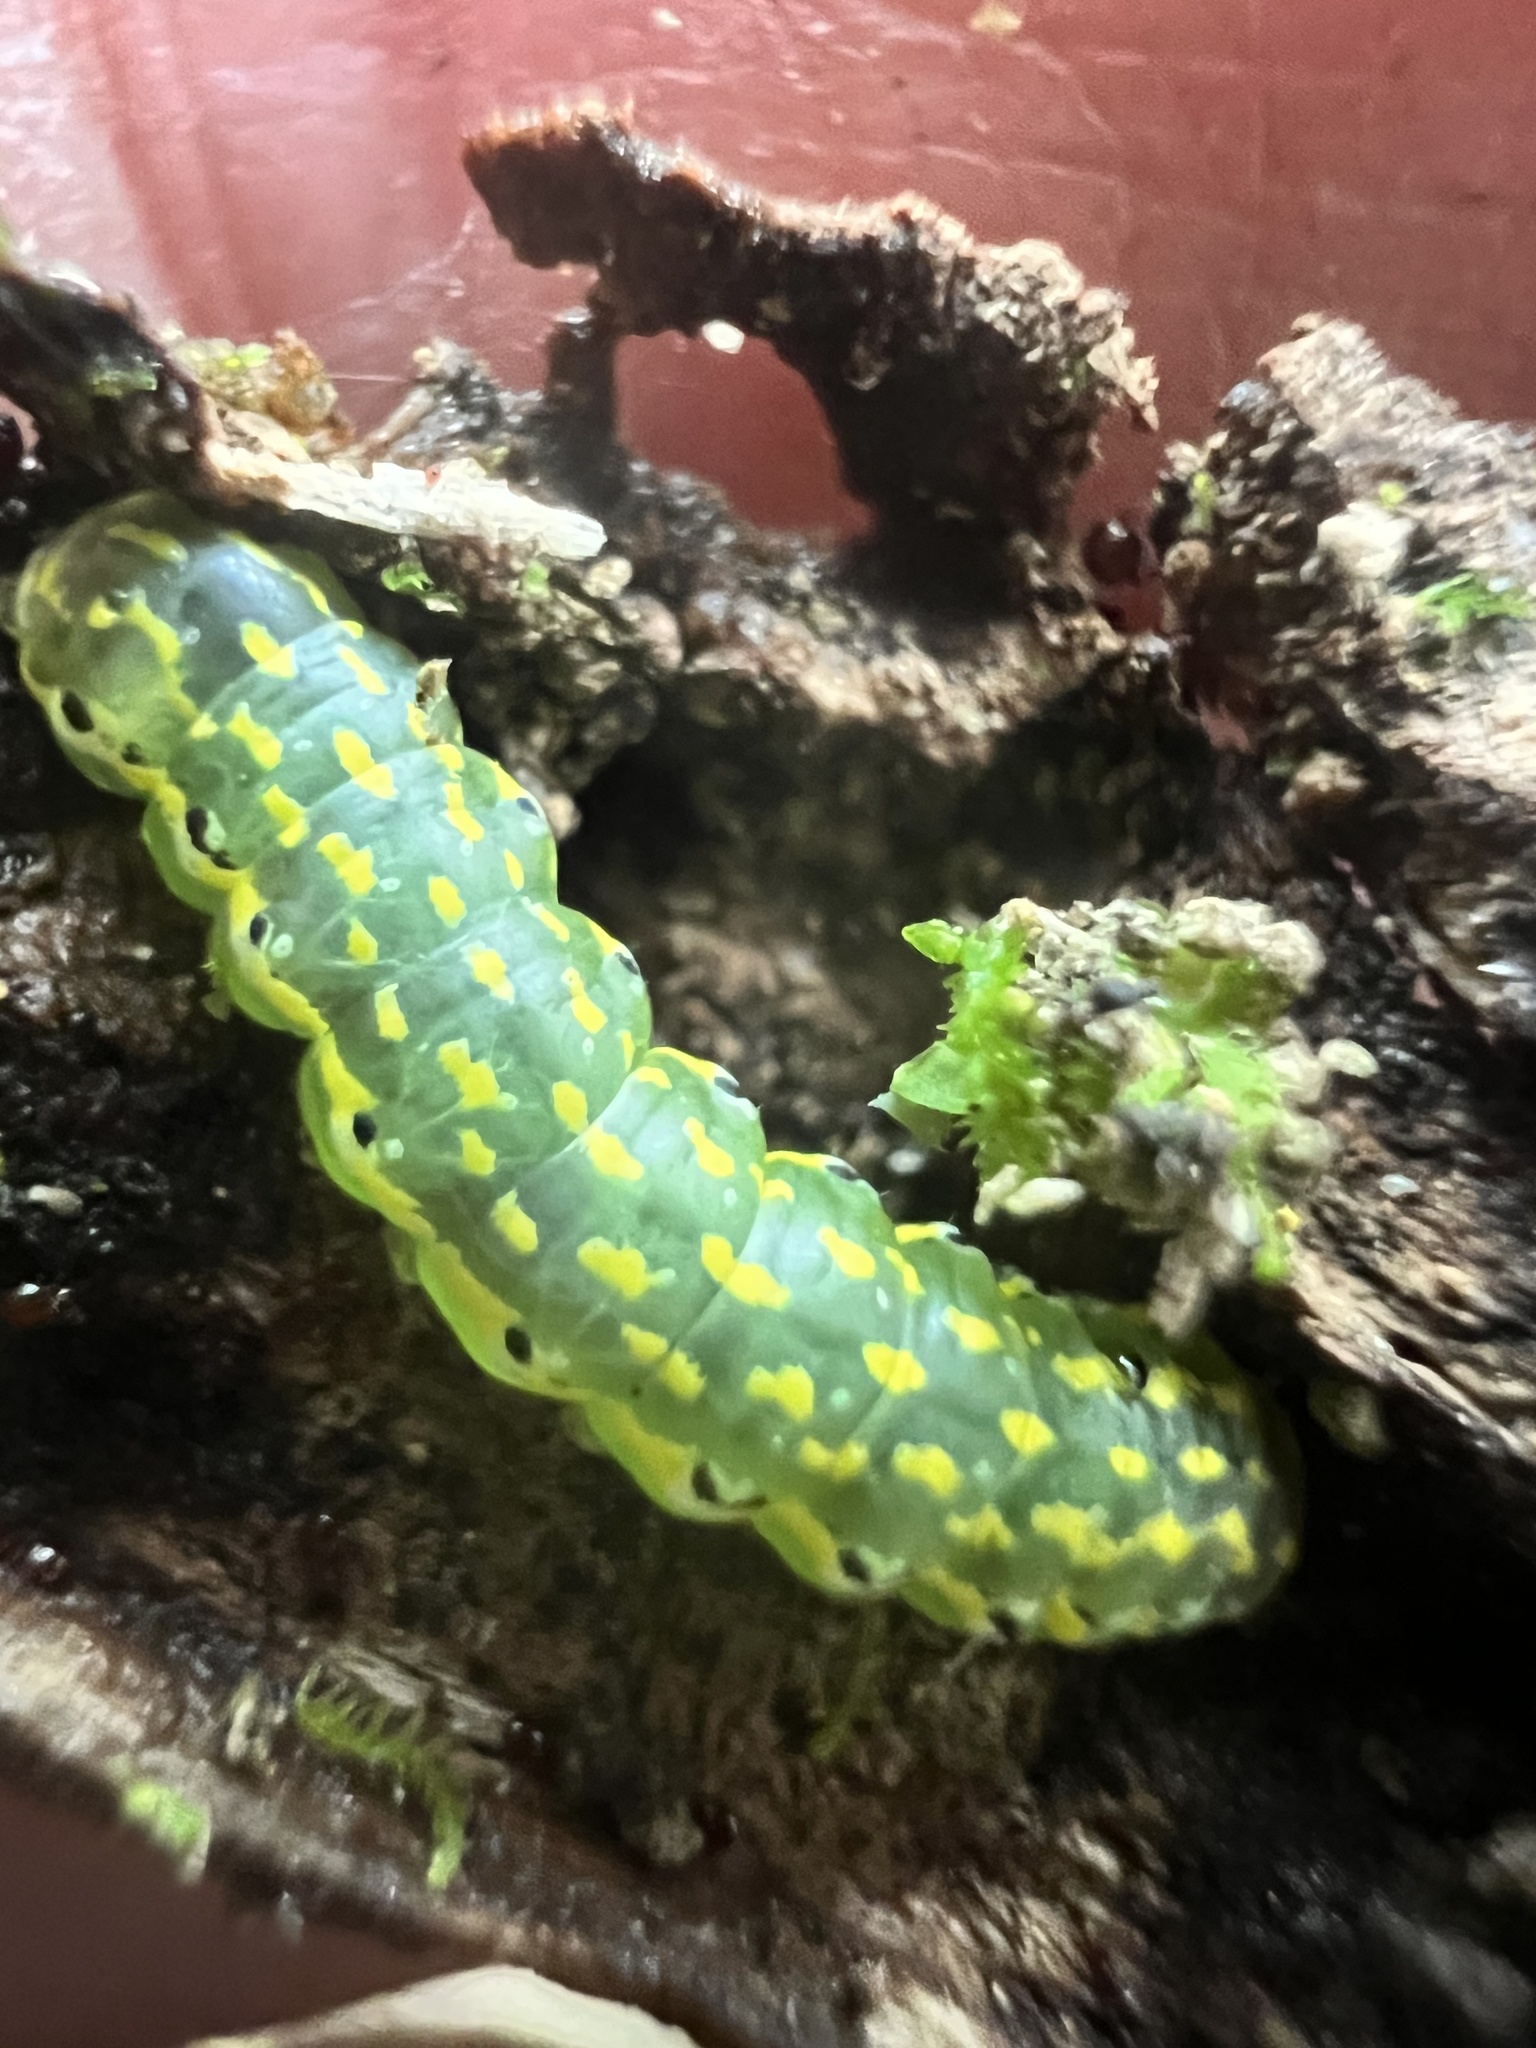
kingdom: Animalia
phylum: Arthropoda
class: Insecta
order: Lepidoptera
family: Noctuidae
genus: Austramathes
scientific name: Austramathes purpurea
